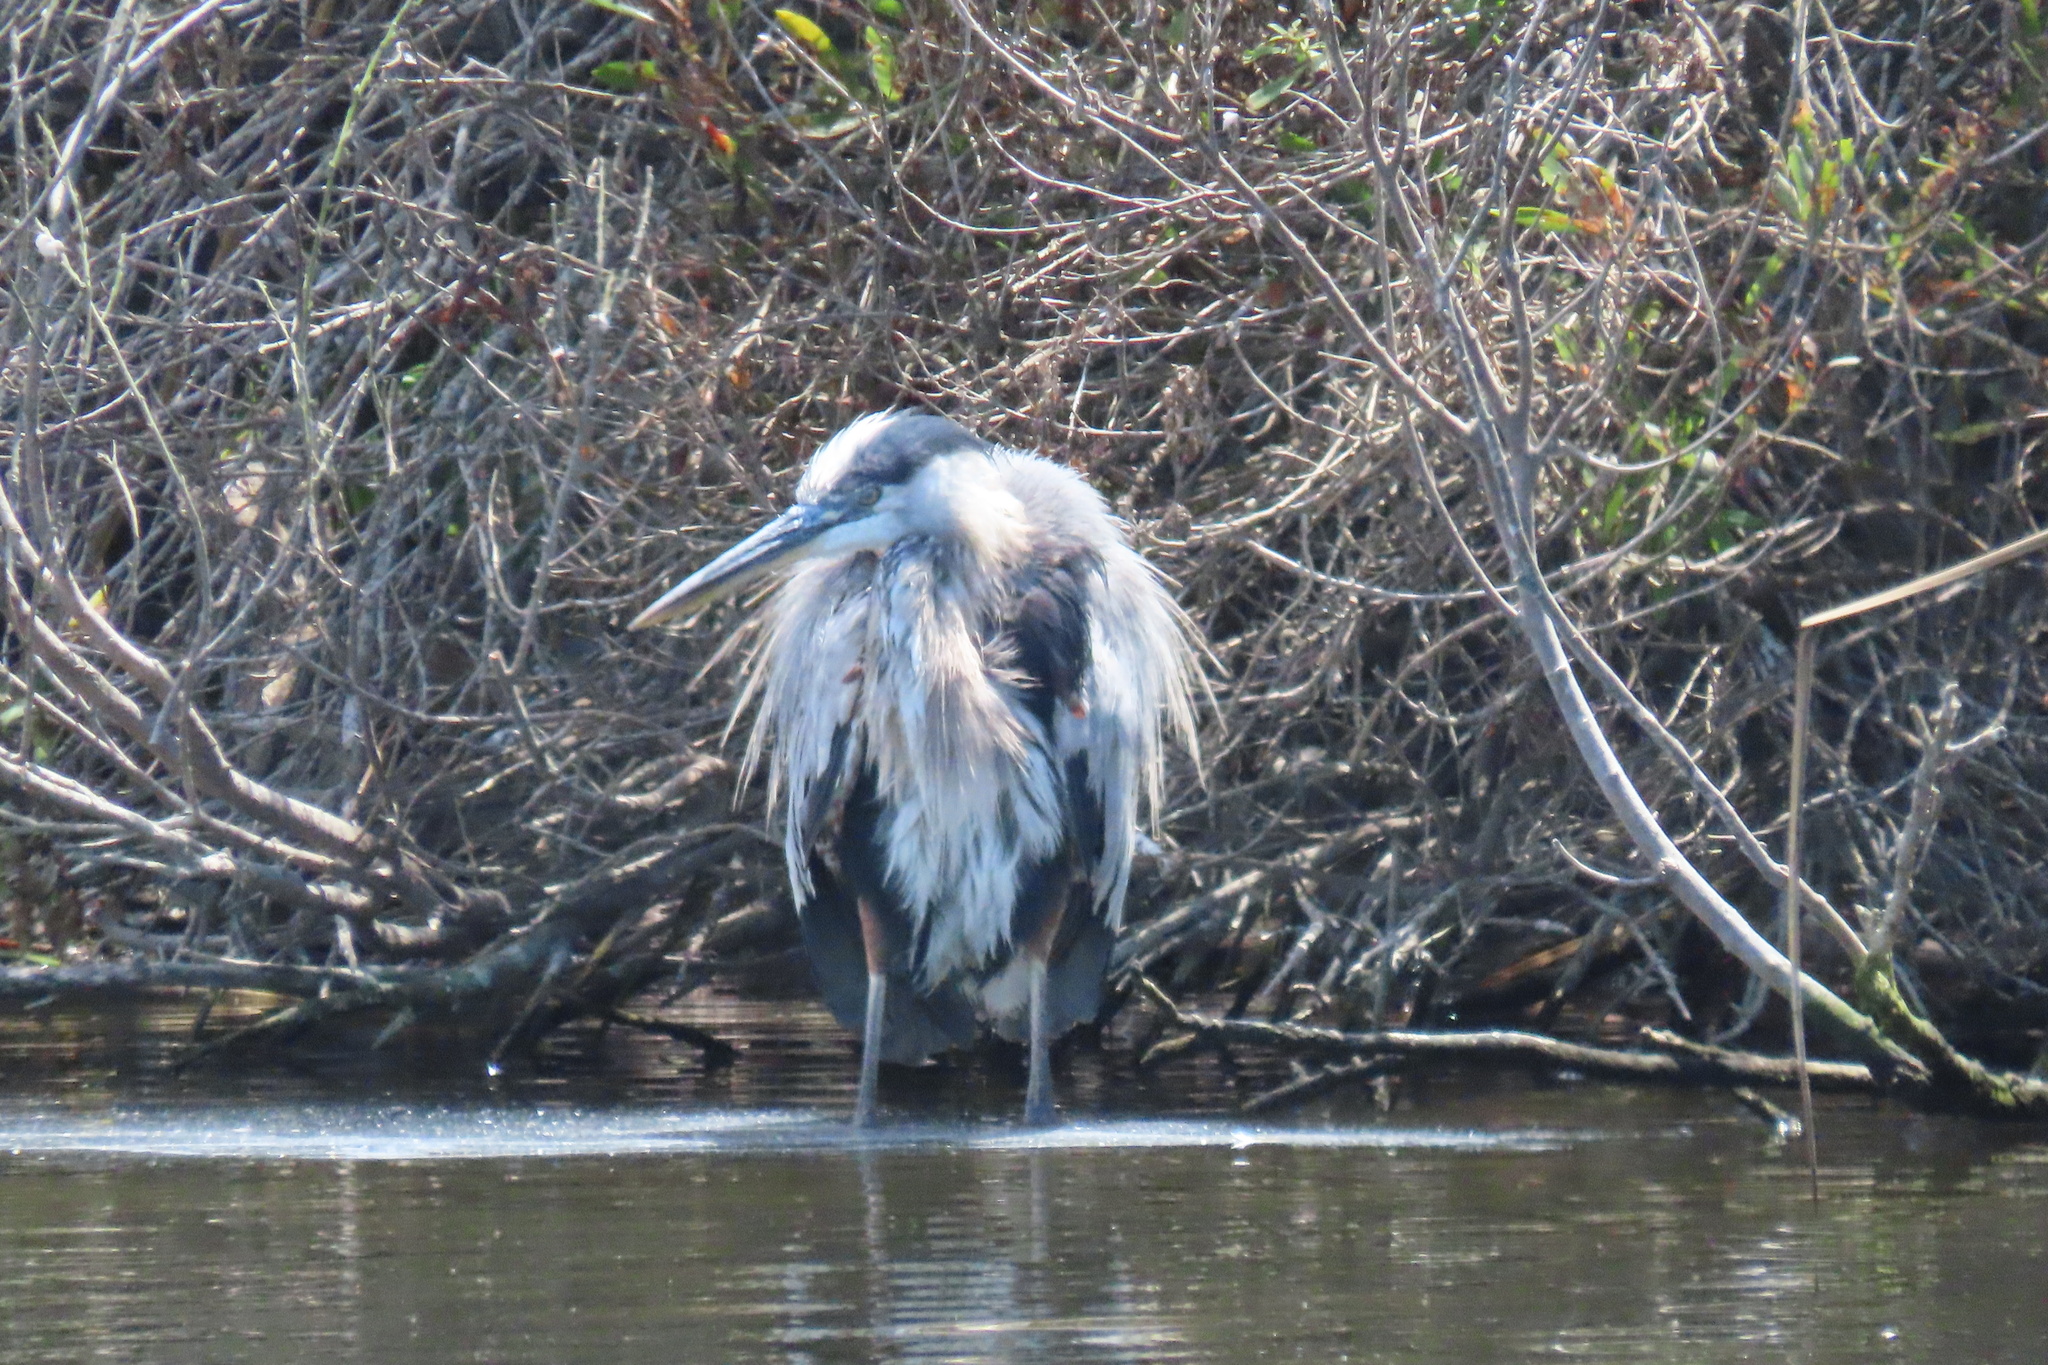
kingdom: Animalia
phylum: Chordata
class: Aves
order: Pelecaniformes
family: Ardeidae
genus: Ardea
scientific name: Ardea herodias
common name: Great blue heron
